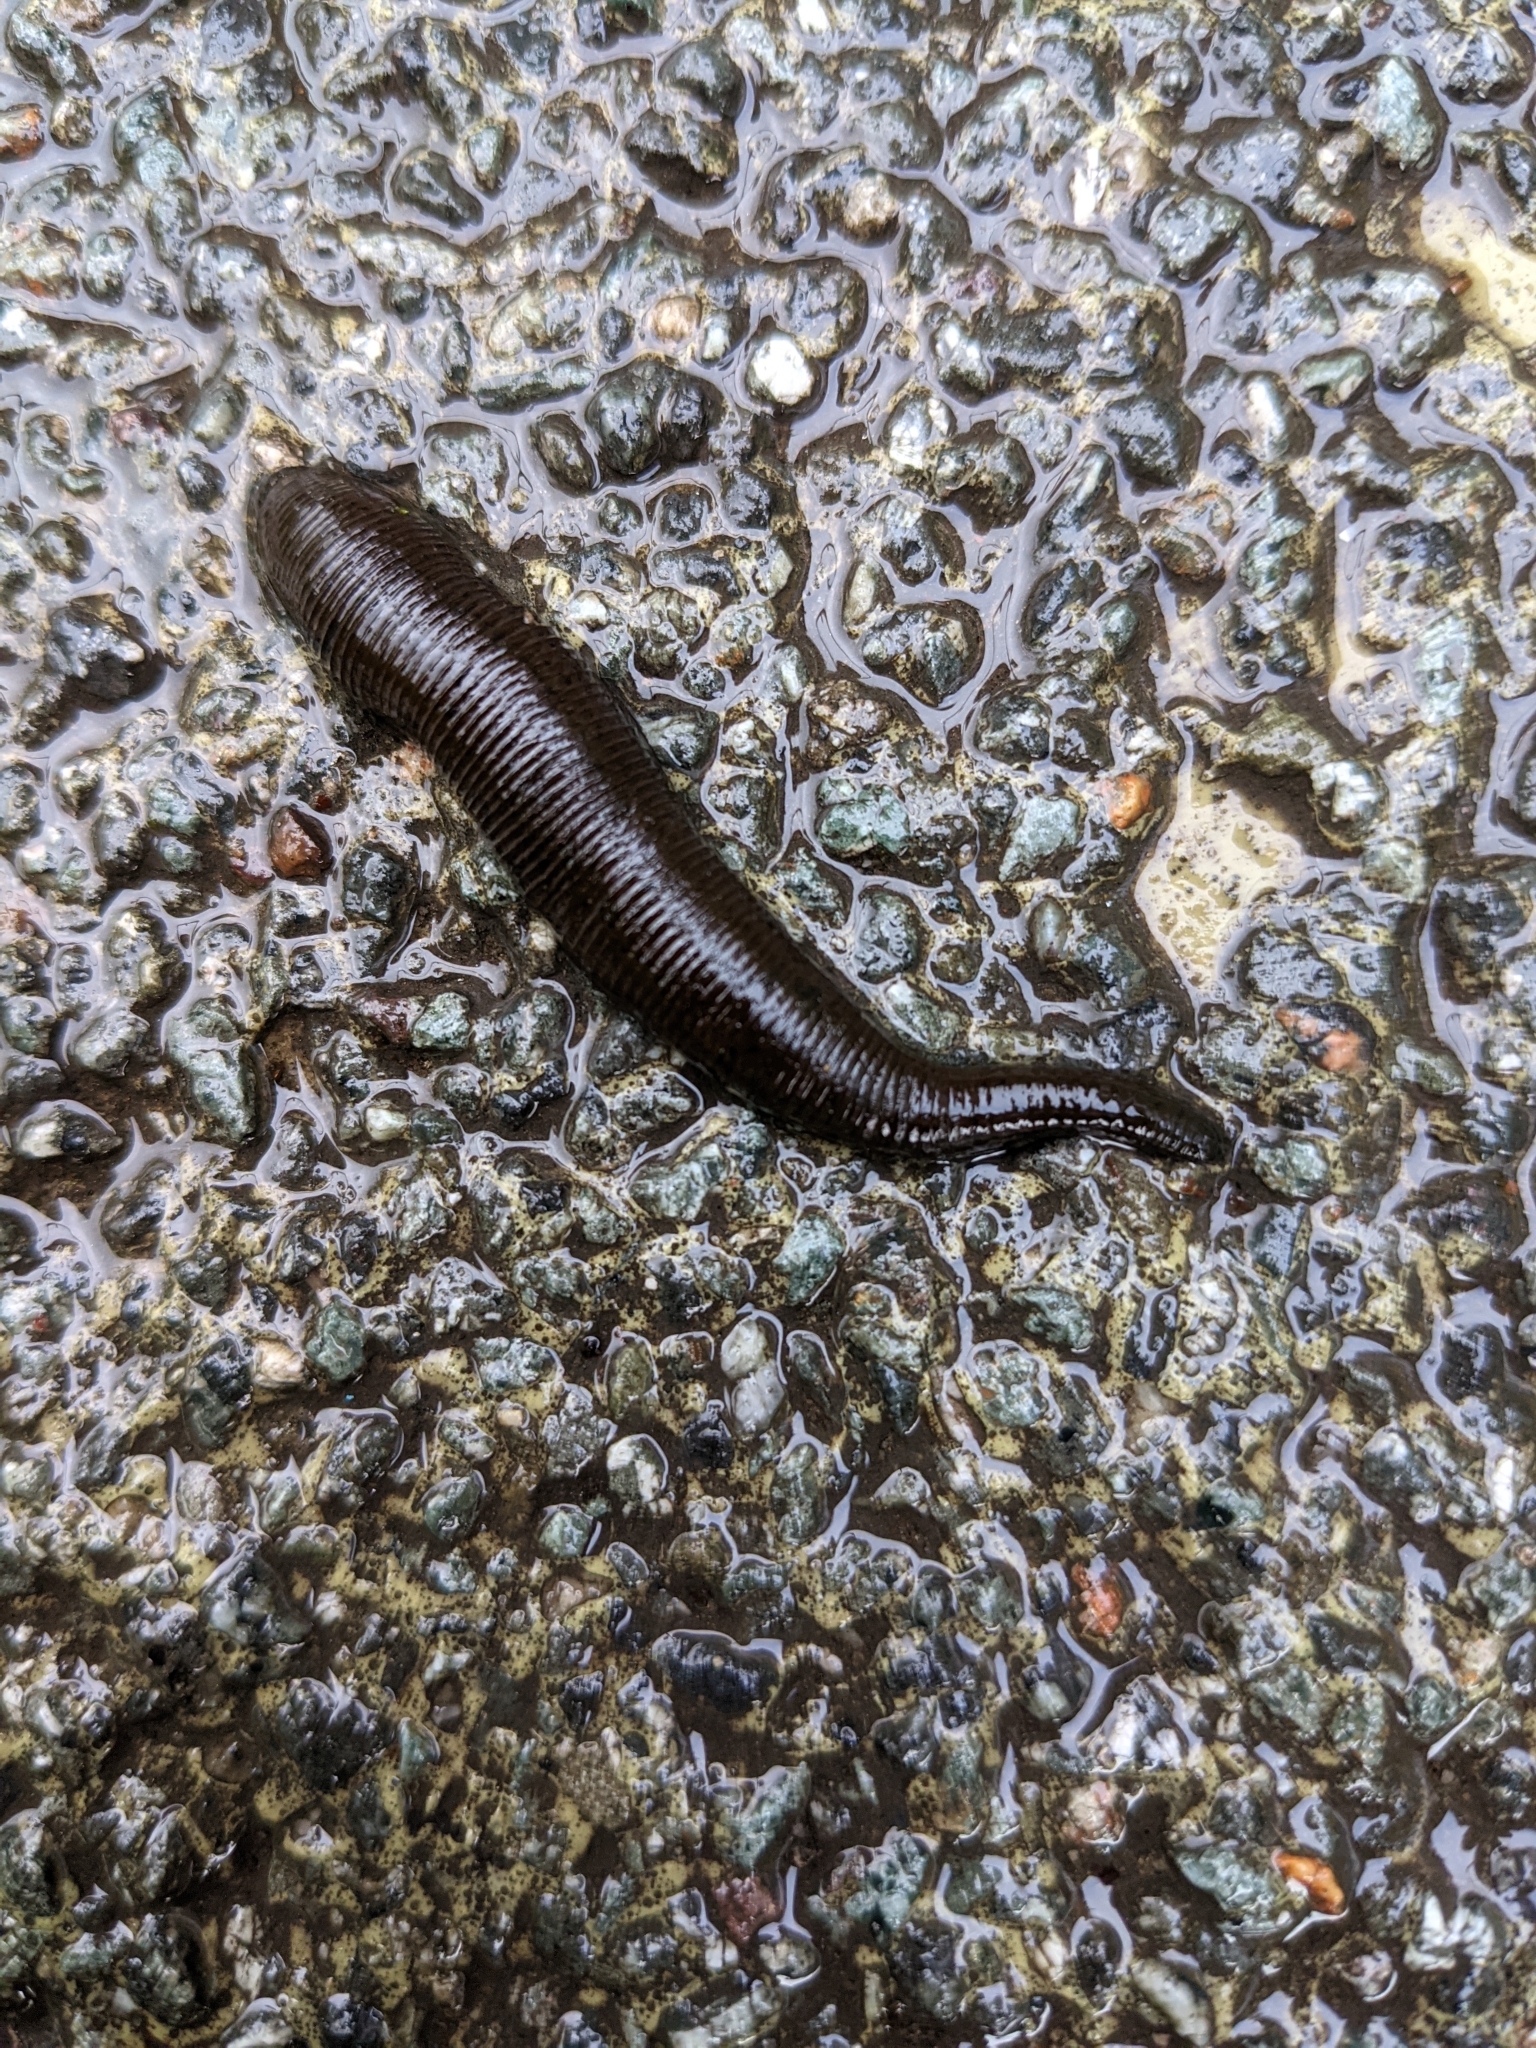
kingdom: Animalia
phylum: Annelida
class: Clitellata
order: Arhynchobdellida
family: Haemopidae
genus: Haemopis
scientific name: Haemopis sanguisuga
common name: Horse leech
